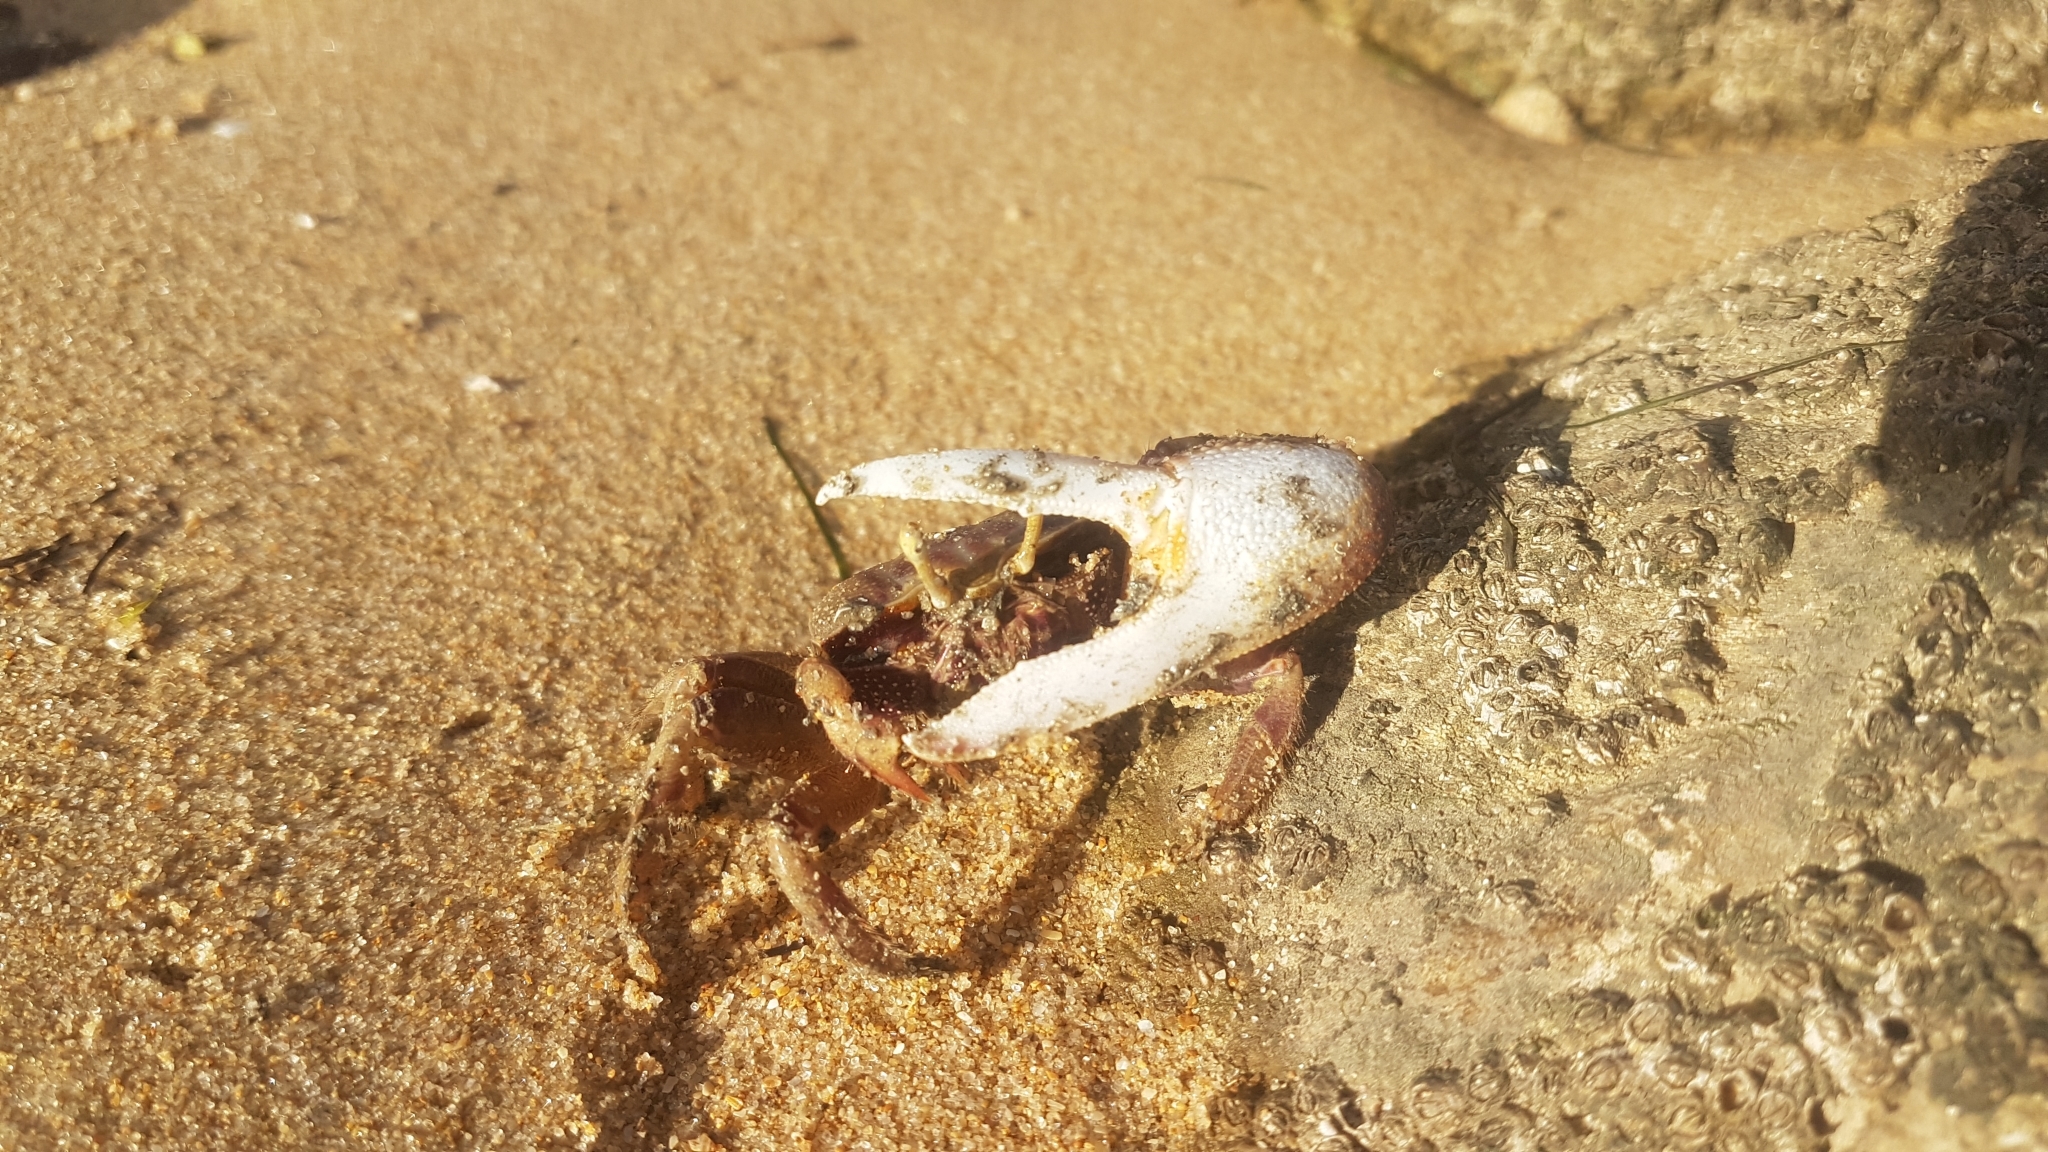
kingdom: Animalia
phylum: Arthropoda
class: Malacostraca
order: Decapoda
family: Ocypodidae
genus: Afruca
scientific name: Afruca tangeri
